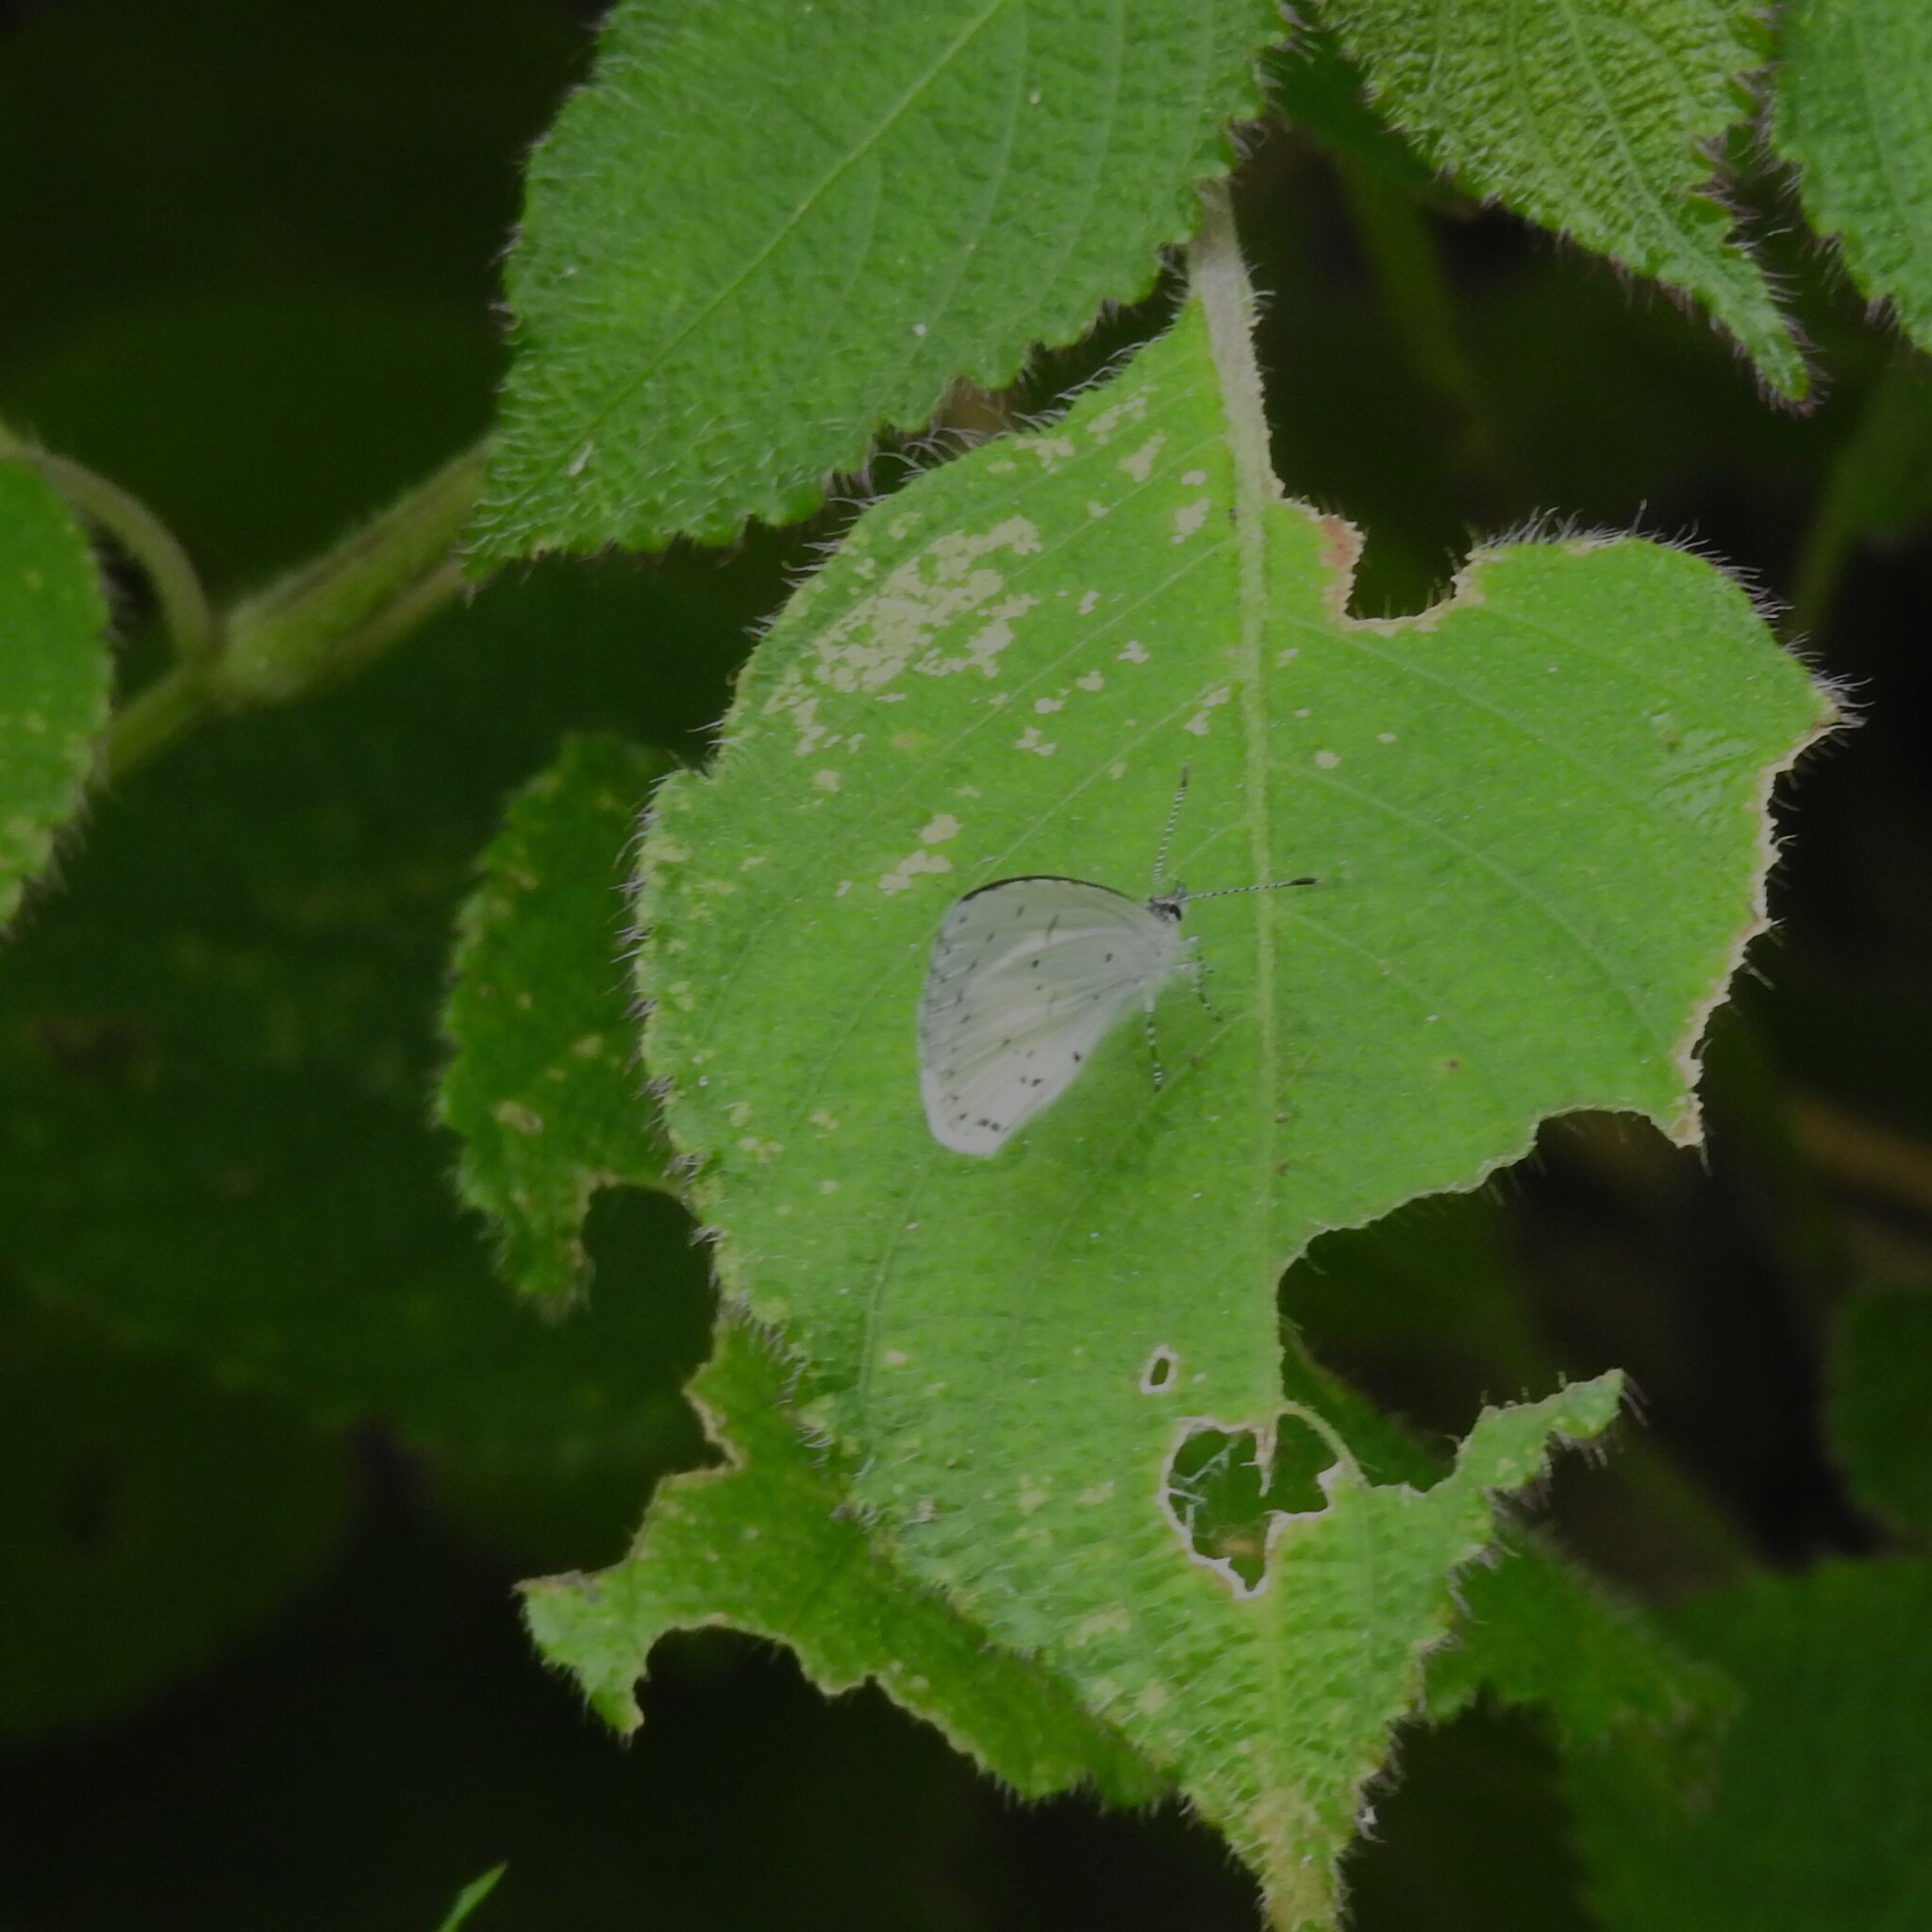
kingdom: Animalia
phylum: Arthropoda
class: Insecta
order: Lepidoptera
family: Lycaenidae
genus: Udara
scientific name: Udara akasa
